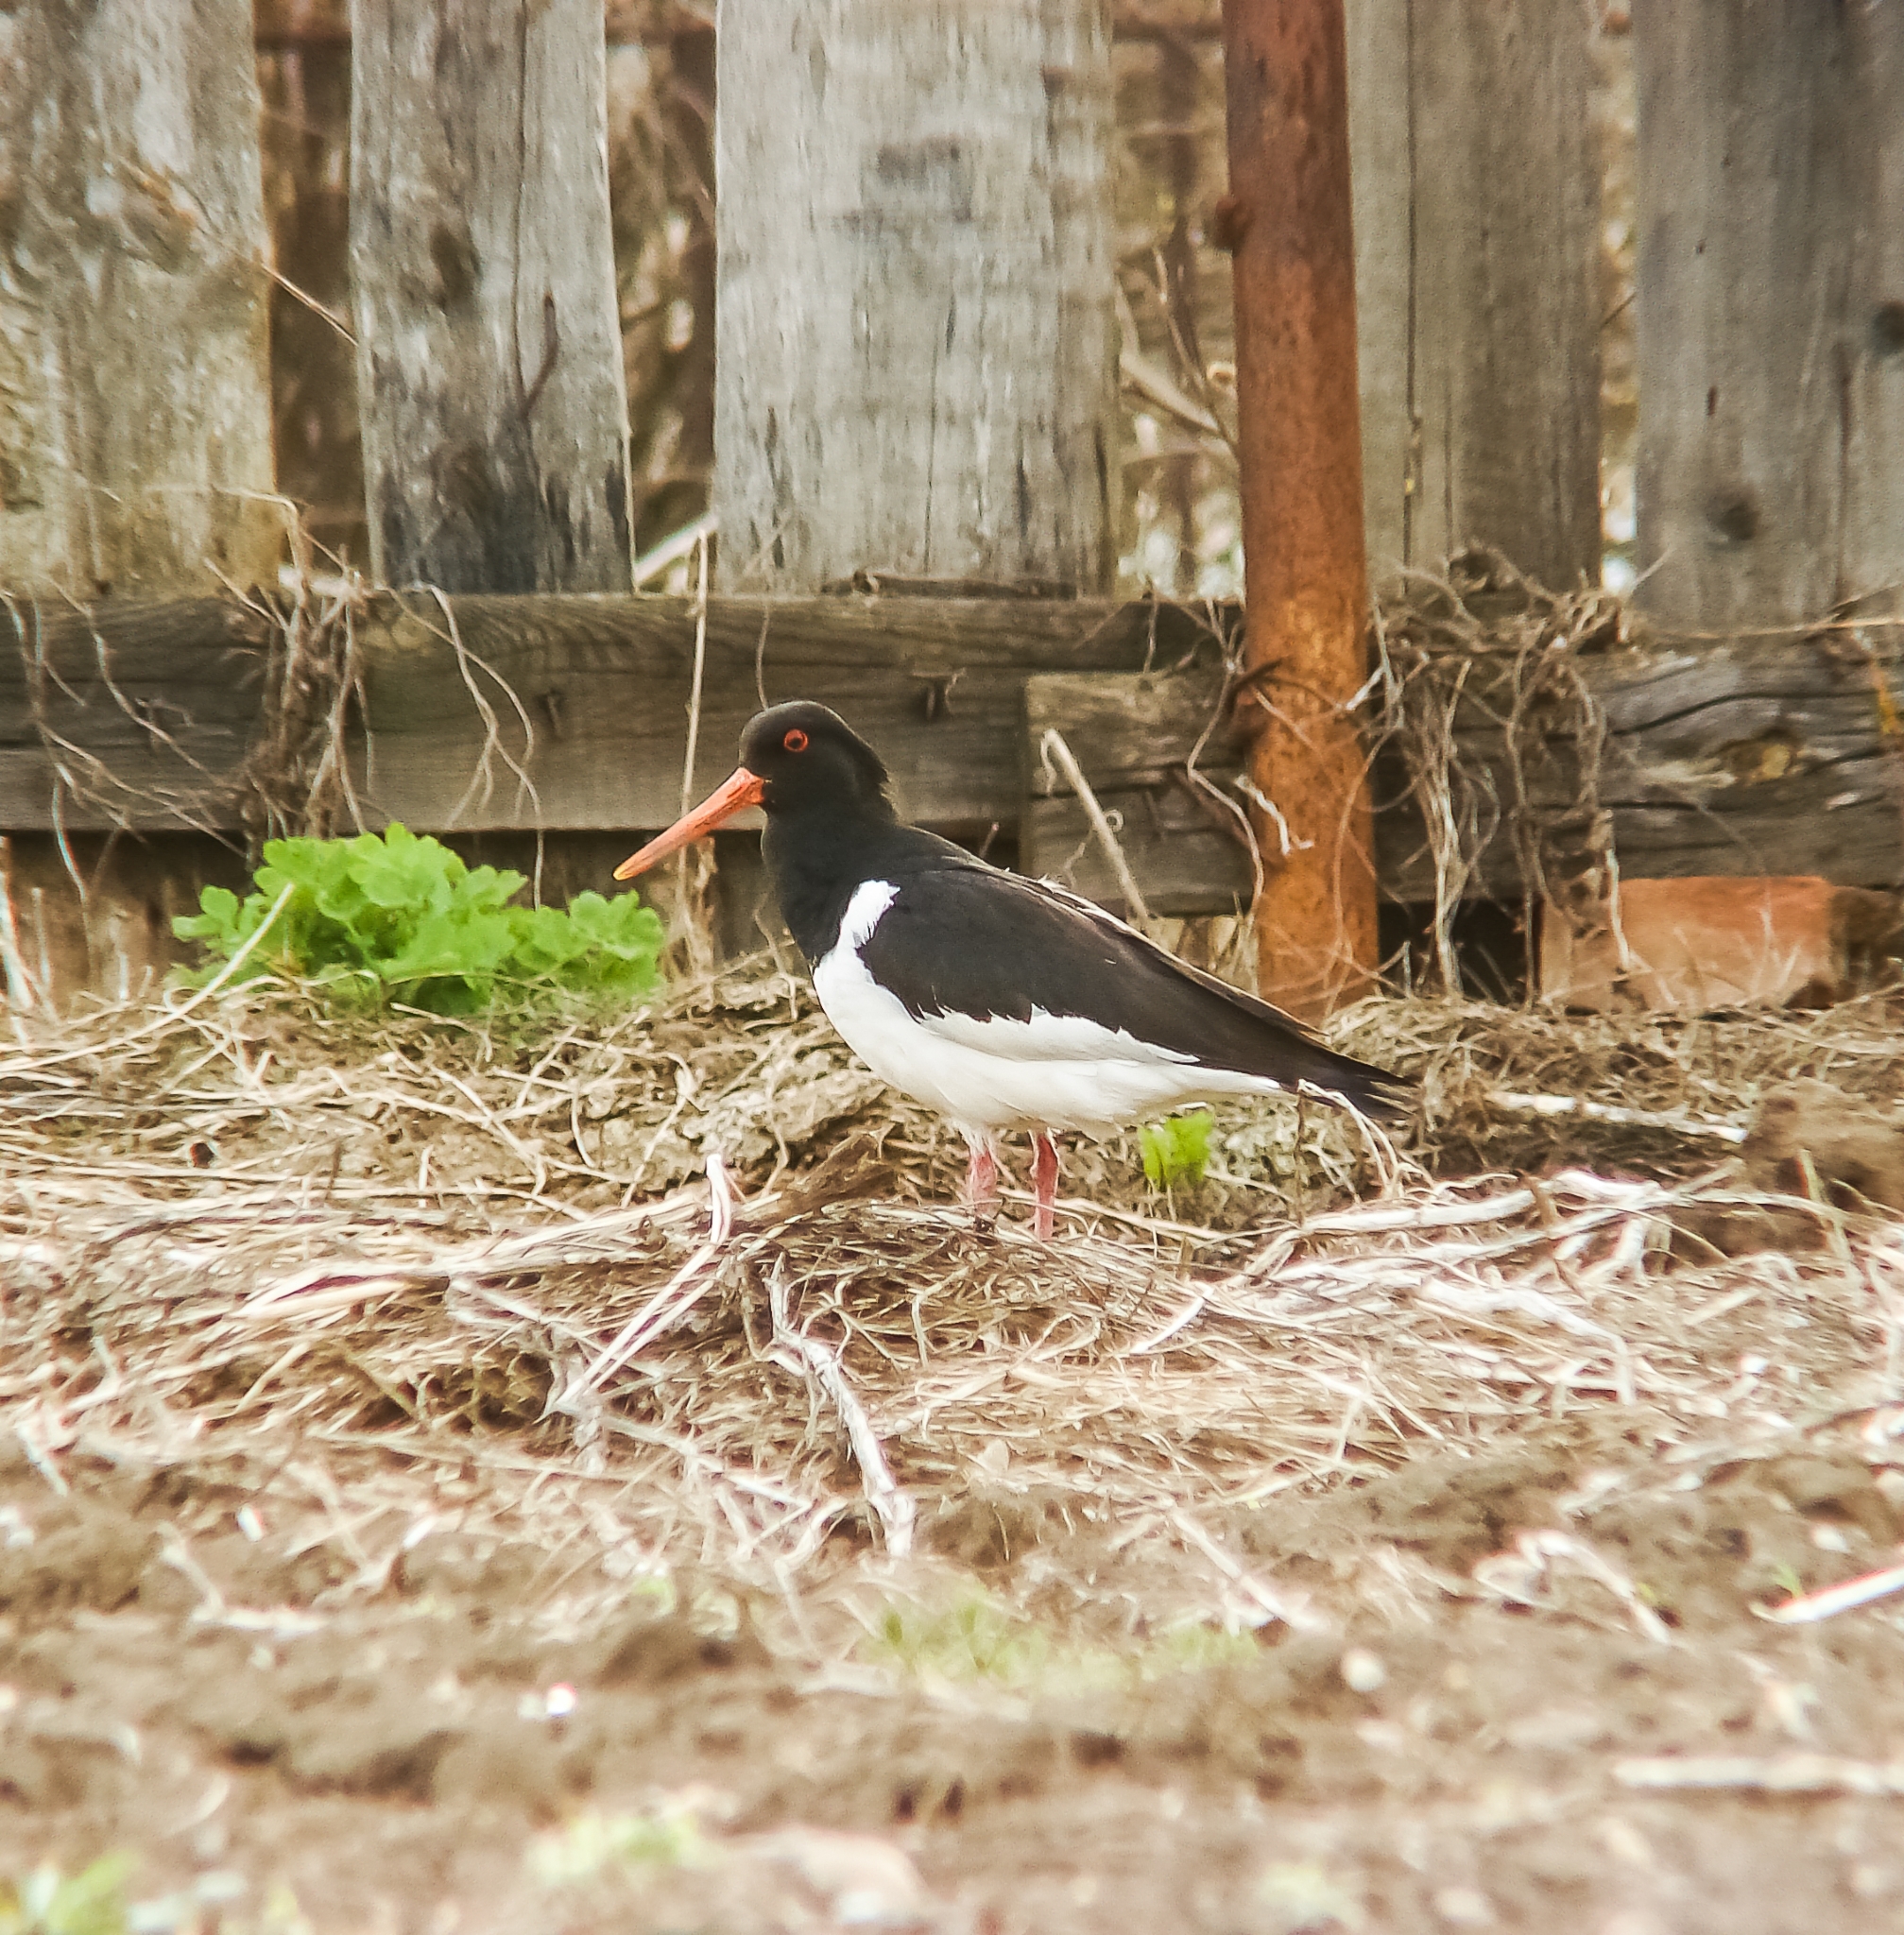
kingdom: Animalia
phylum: Chordata
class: Aves
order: Charadriiformes
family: Haematopodidae
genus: Haematopus
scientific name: Haematopus ostralegus
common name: Eurasian oystercatcher
